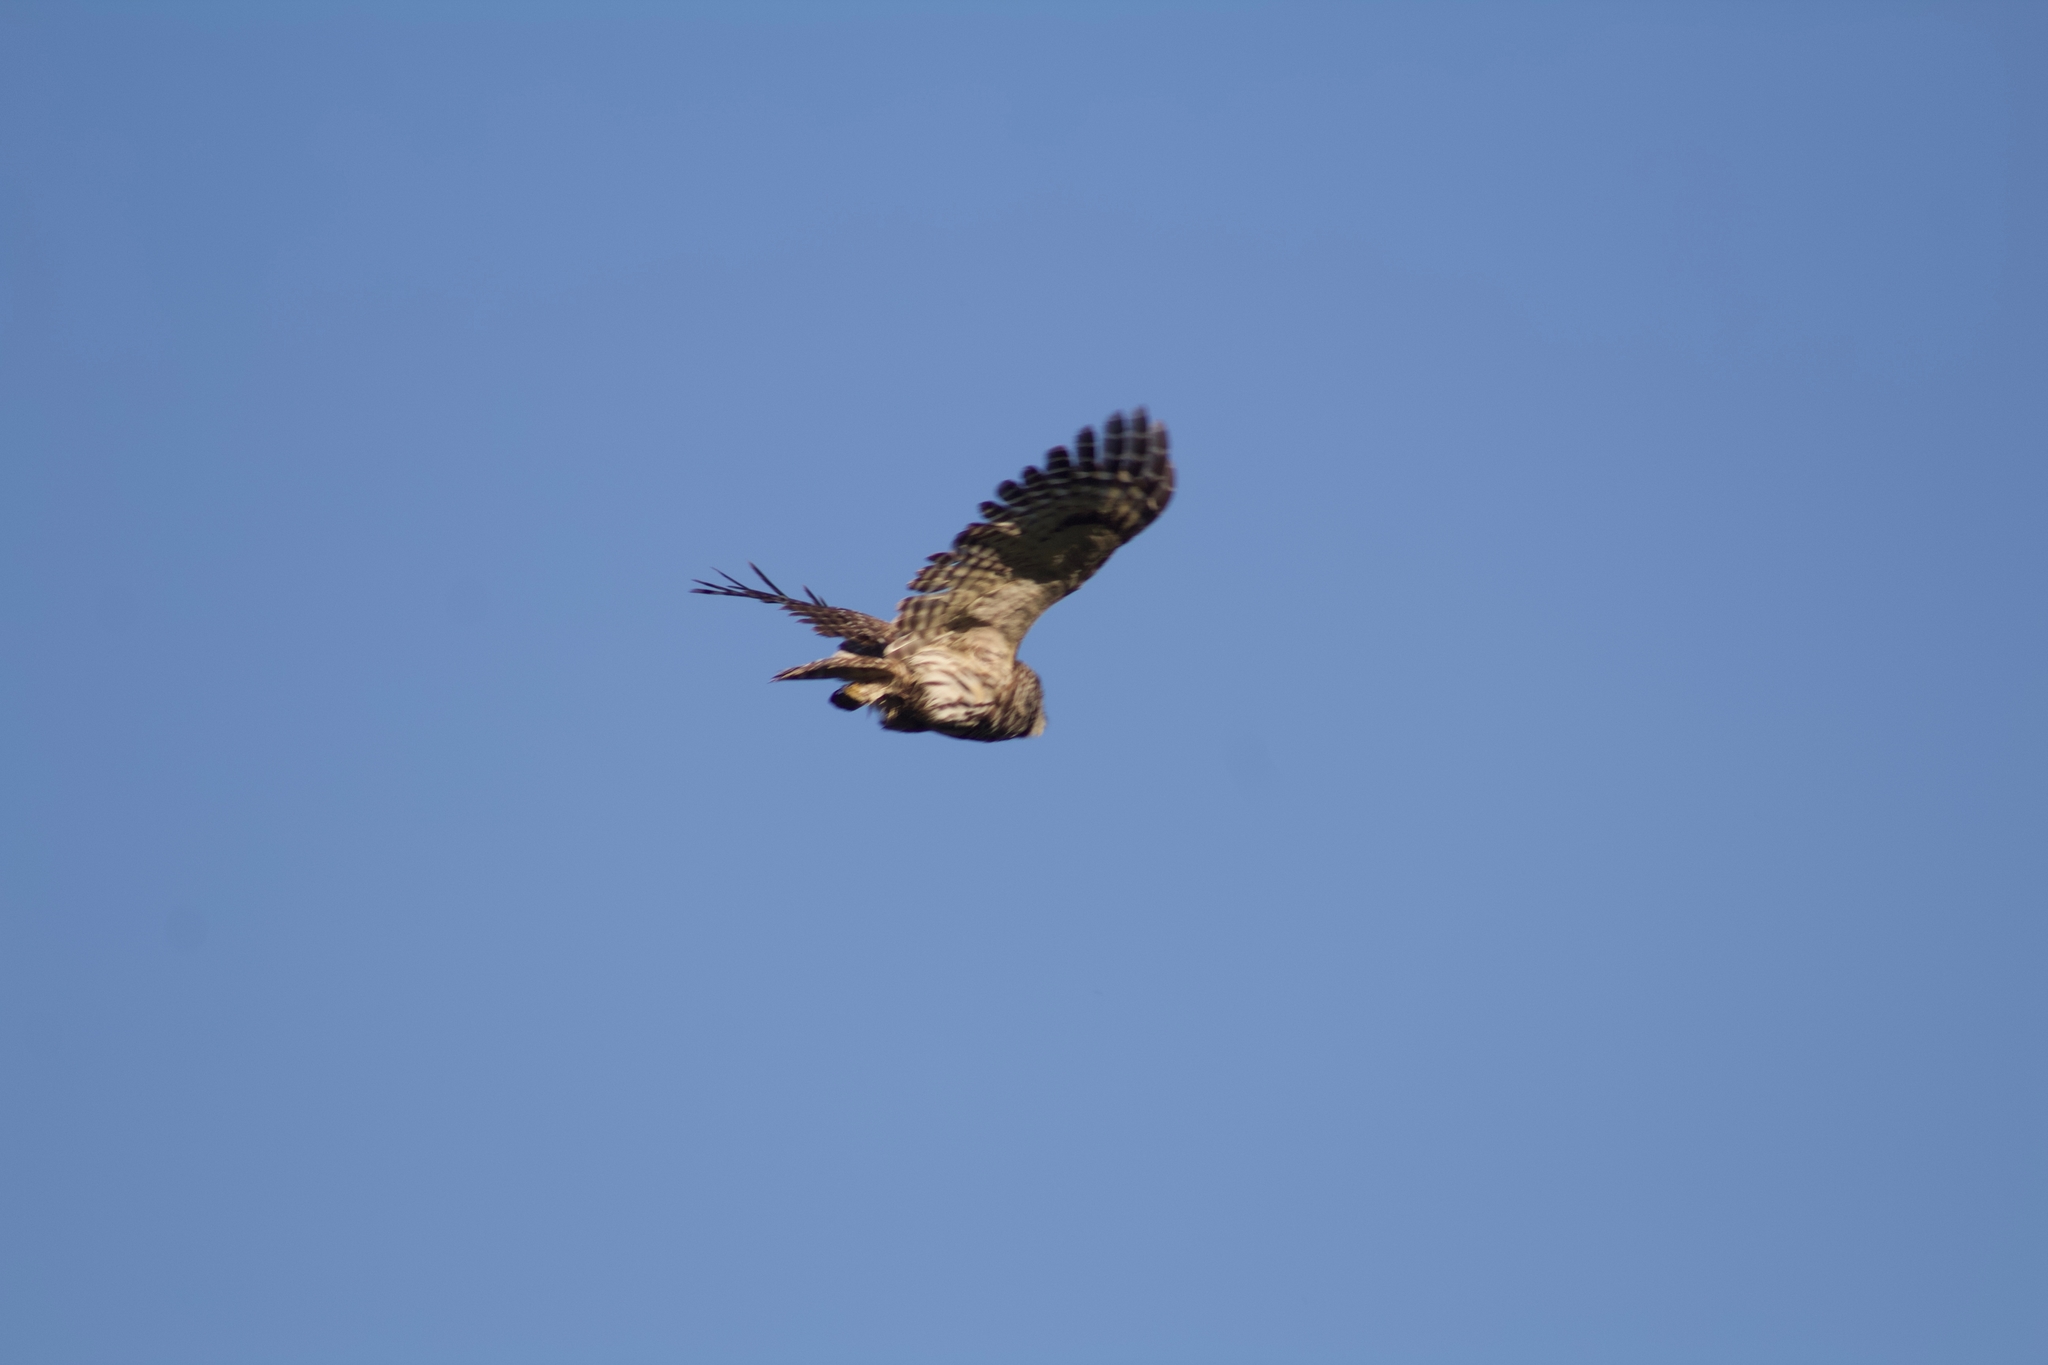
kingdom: Animalia
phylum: Chordata
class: Aves
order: Strigiformes
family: Strigidae
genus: Strix
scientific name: Strix varia
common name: Barred owl
